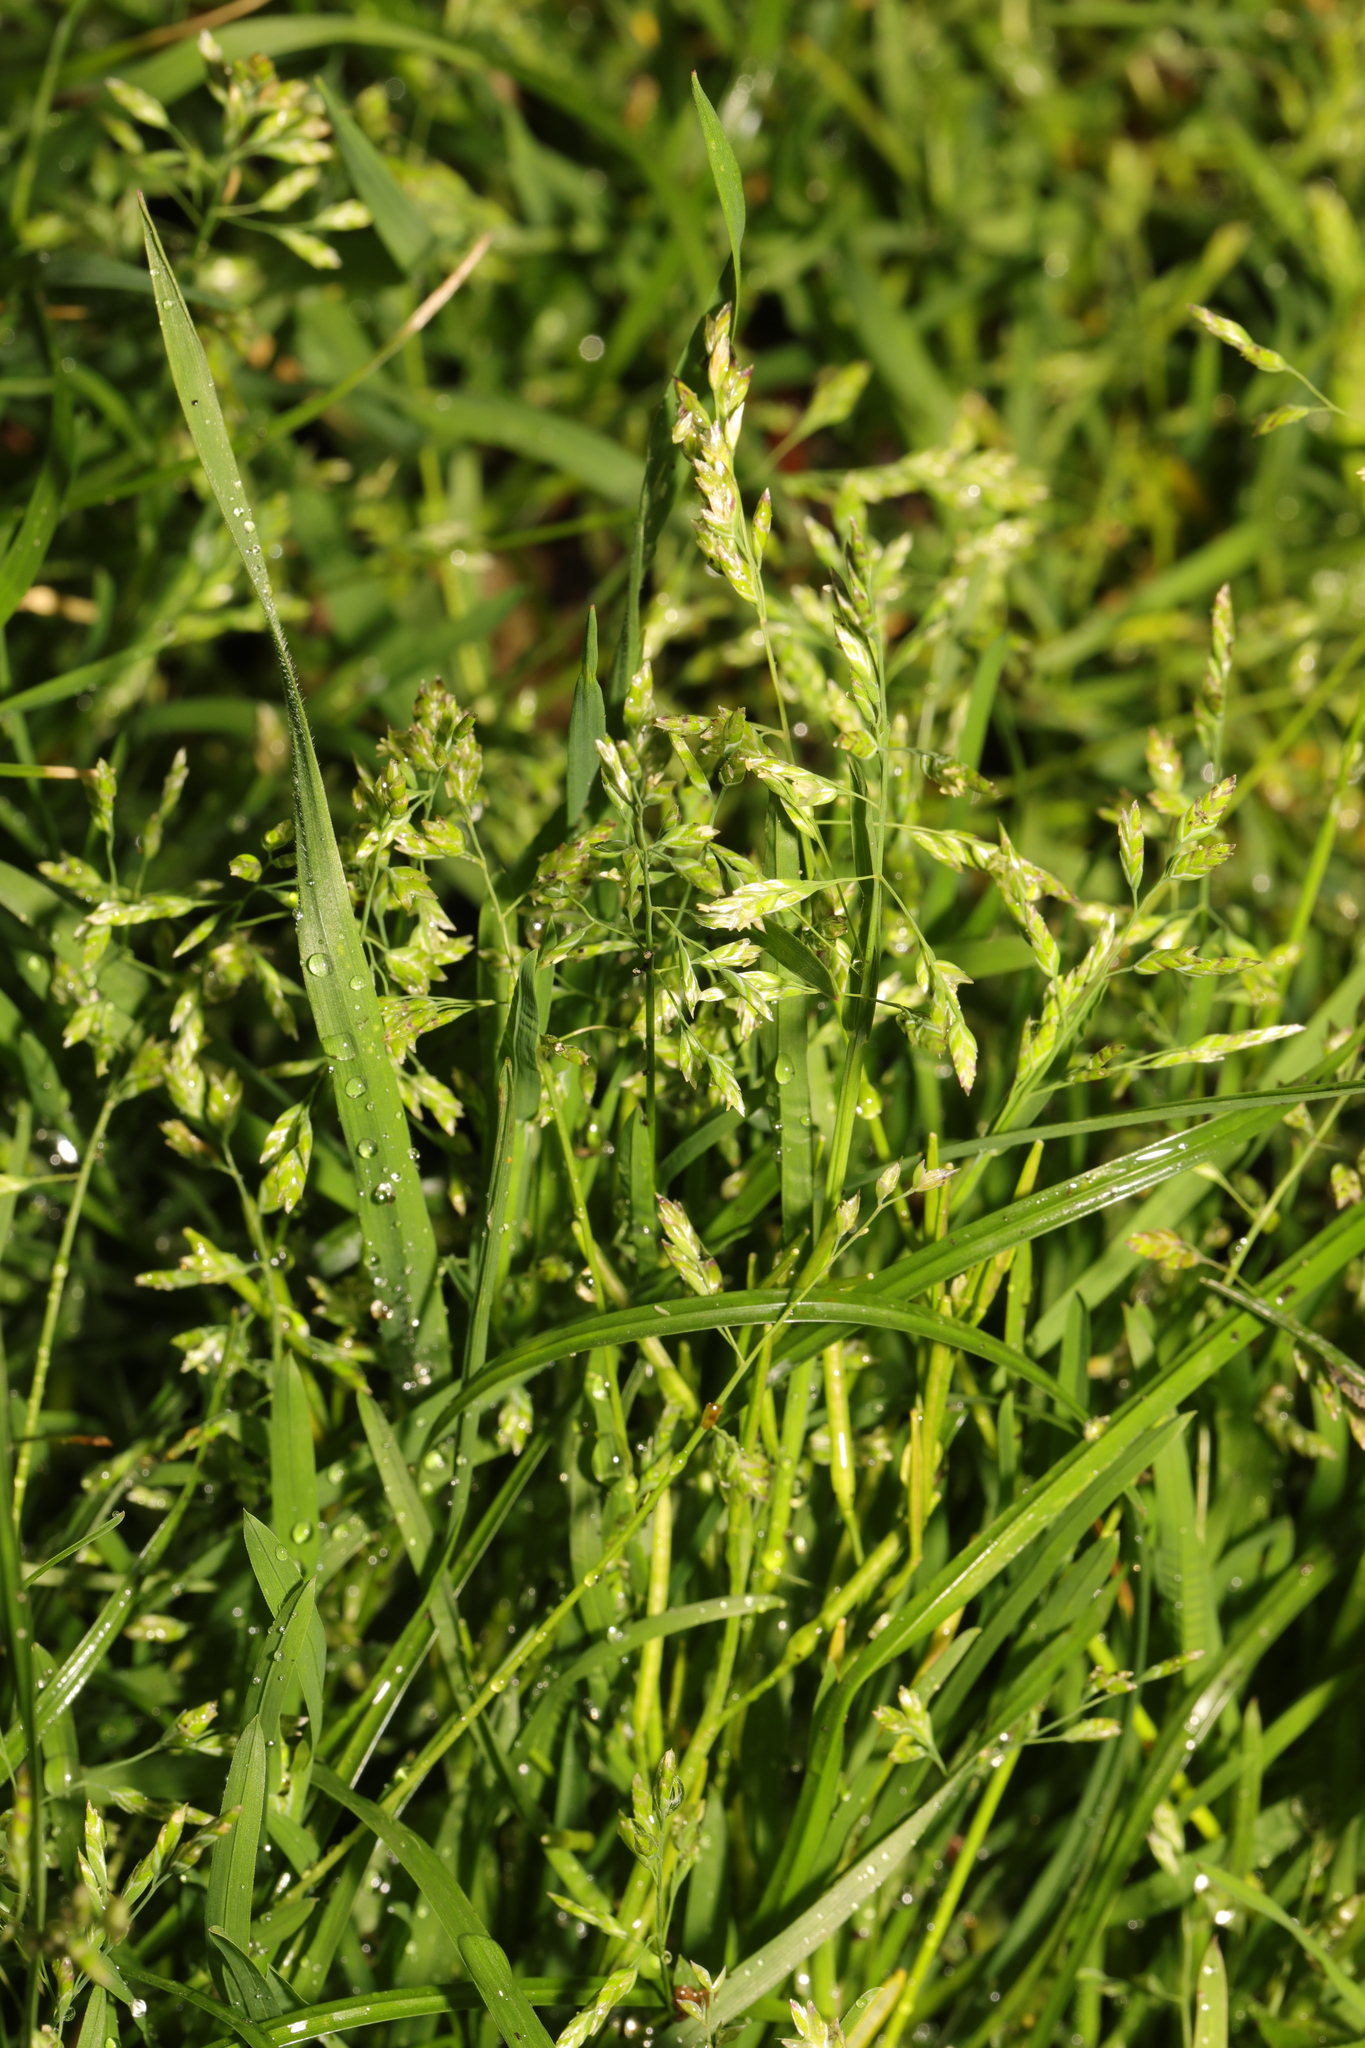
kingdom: Plantae
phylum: Tracheophyta
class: Liliopsida
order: Poales
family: Poaceae
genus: Poa
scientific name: Poa annua
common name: Annual bluegrass
